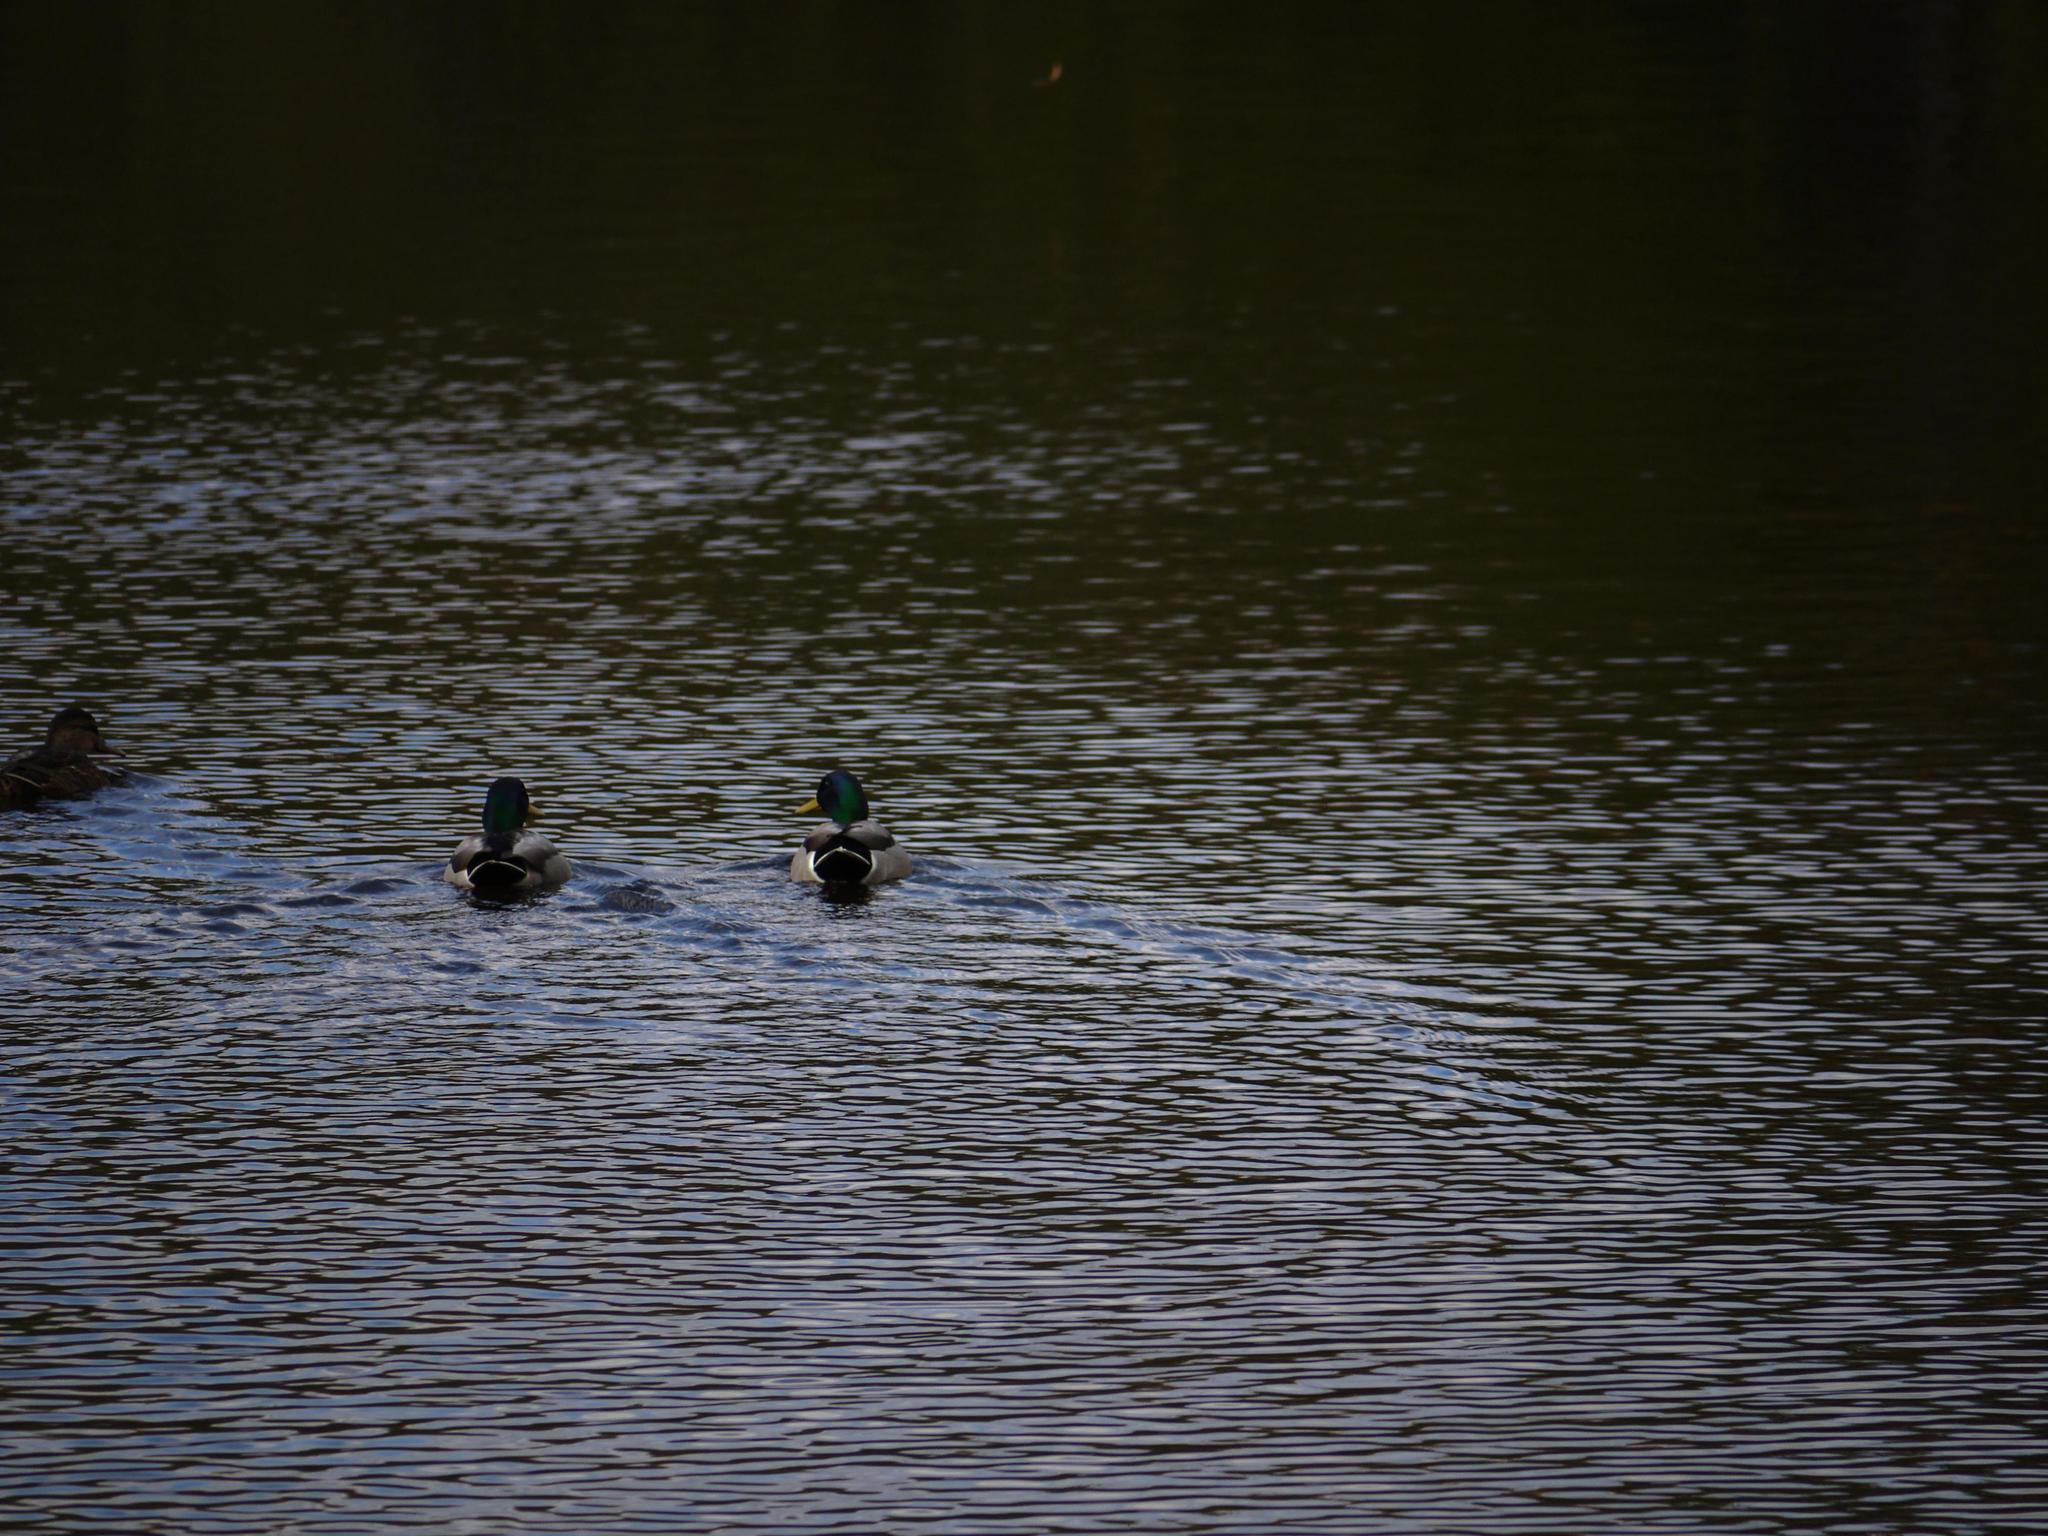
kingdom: Animalia
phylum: Chordata
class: Aves
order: Anseriformes
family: Anatidae
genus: Anas
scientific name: Anas platyrhynchos
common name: Mallard
